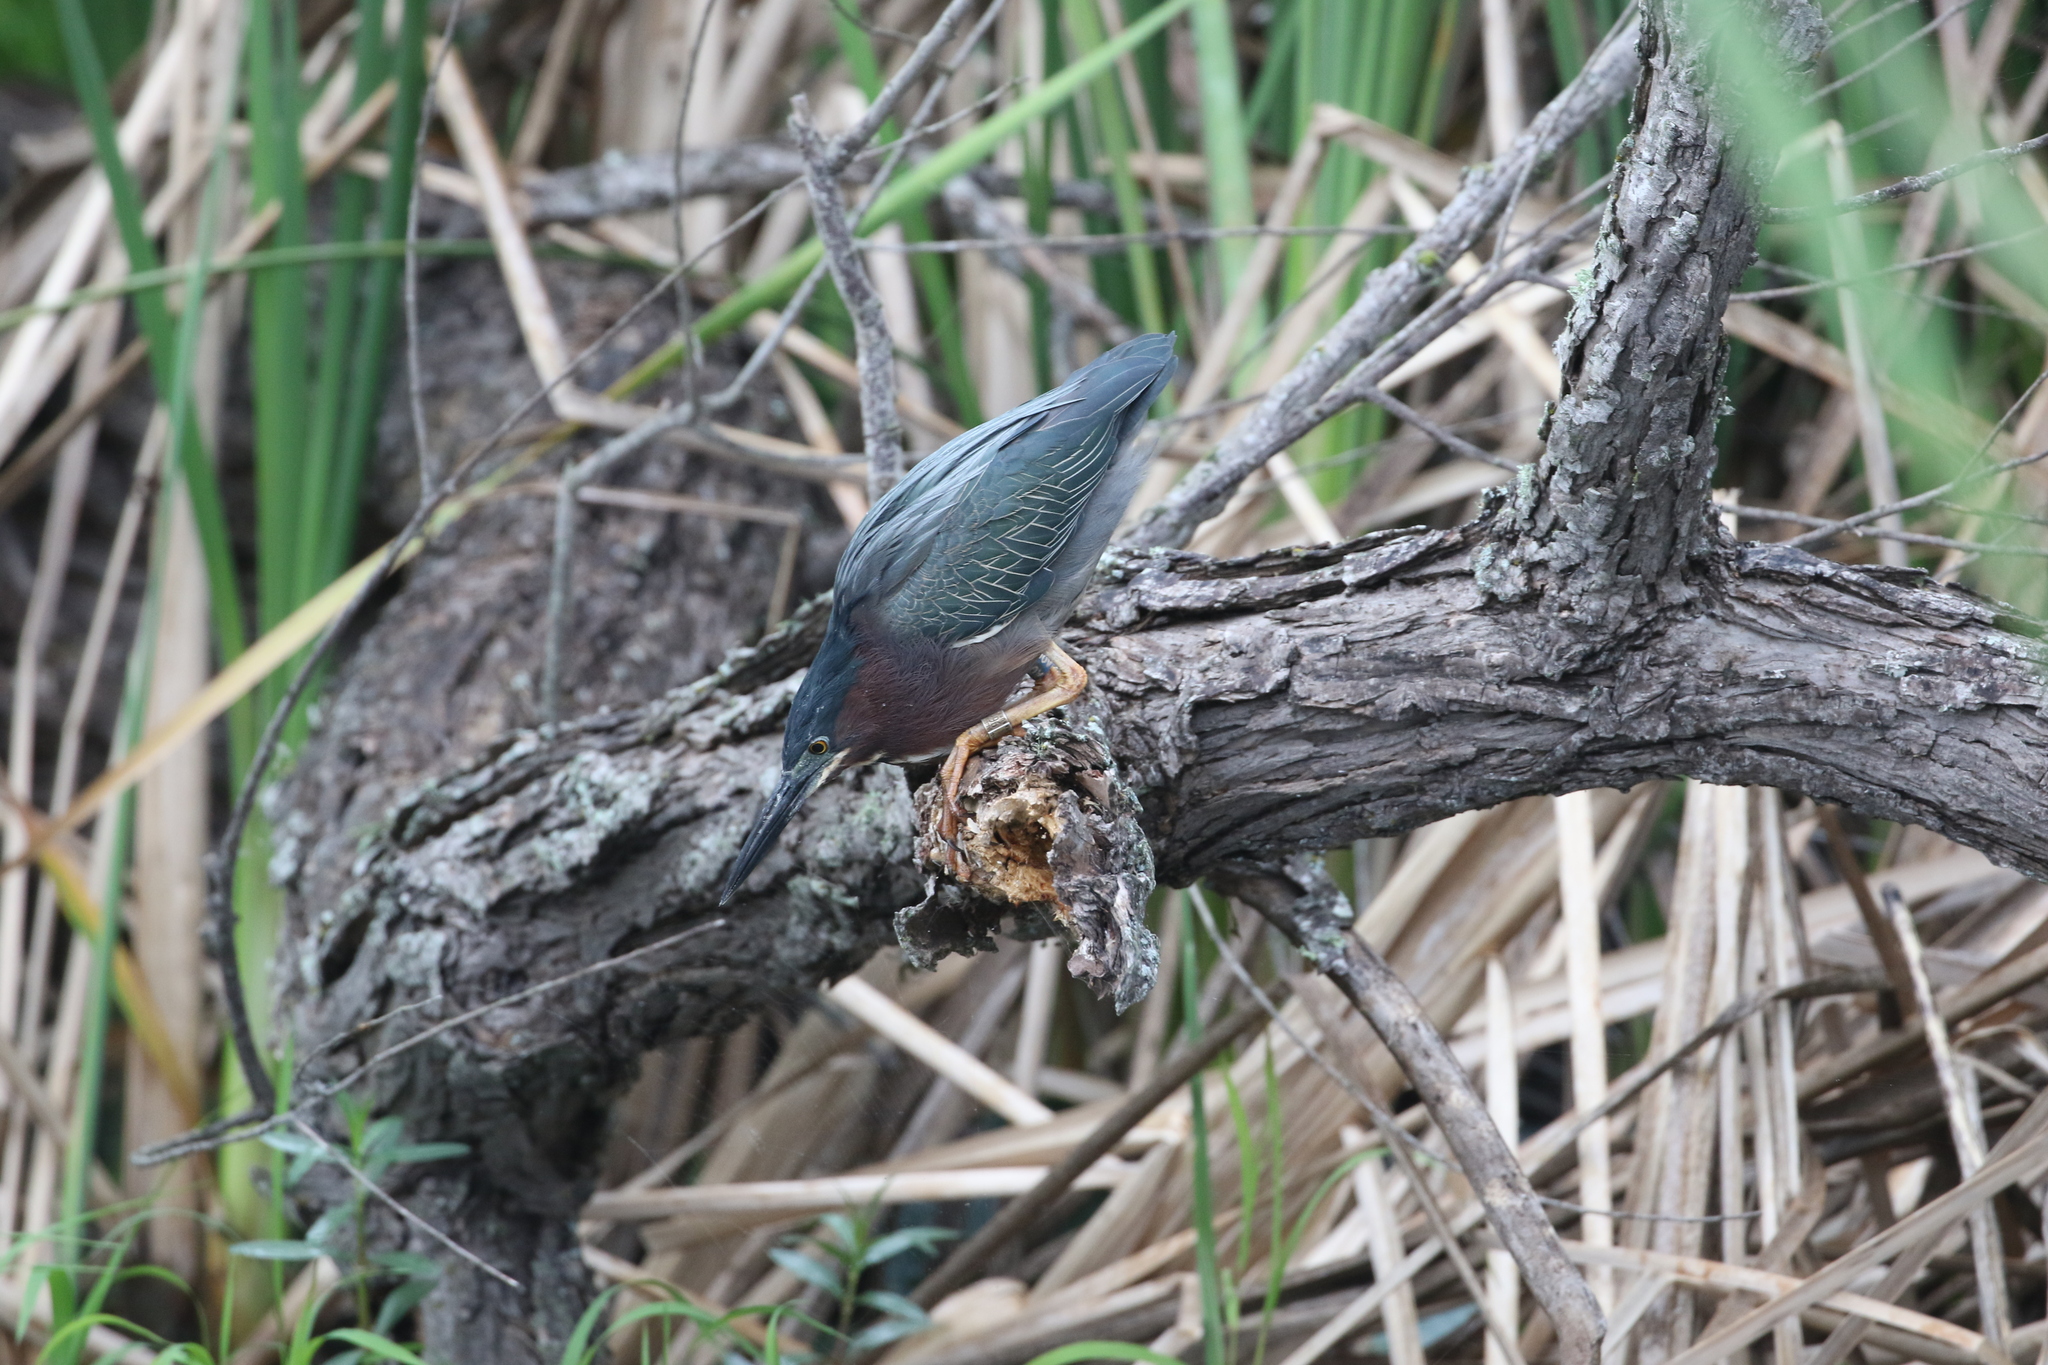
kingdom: Animalia
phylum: Chordata
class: Aves
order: Pelecaniformes
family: Ardeidae
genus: Butorides
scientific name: Butorides virescens
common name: Green heron
